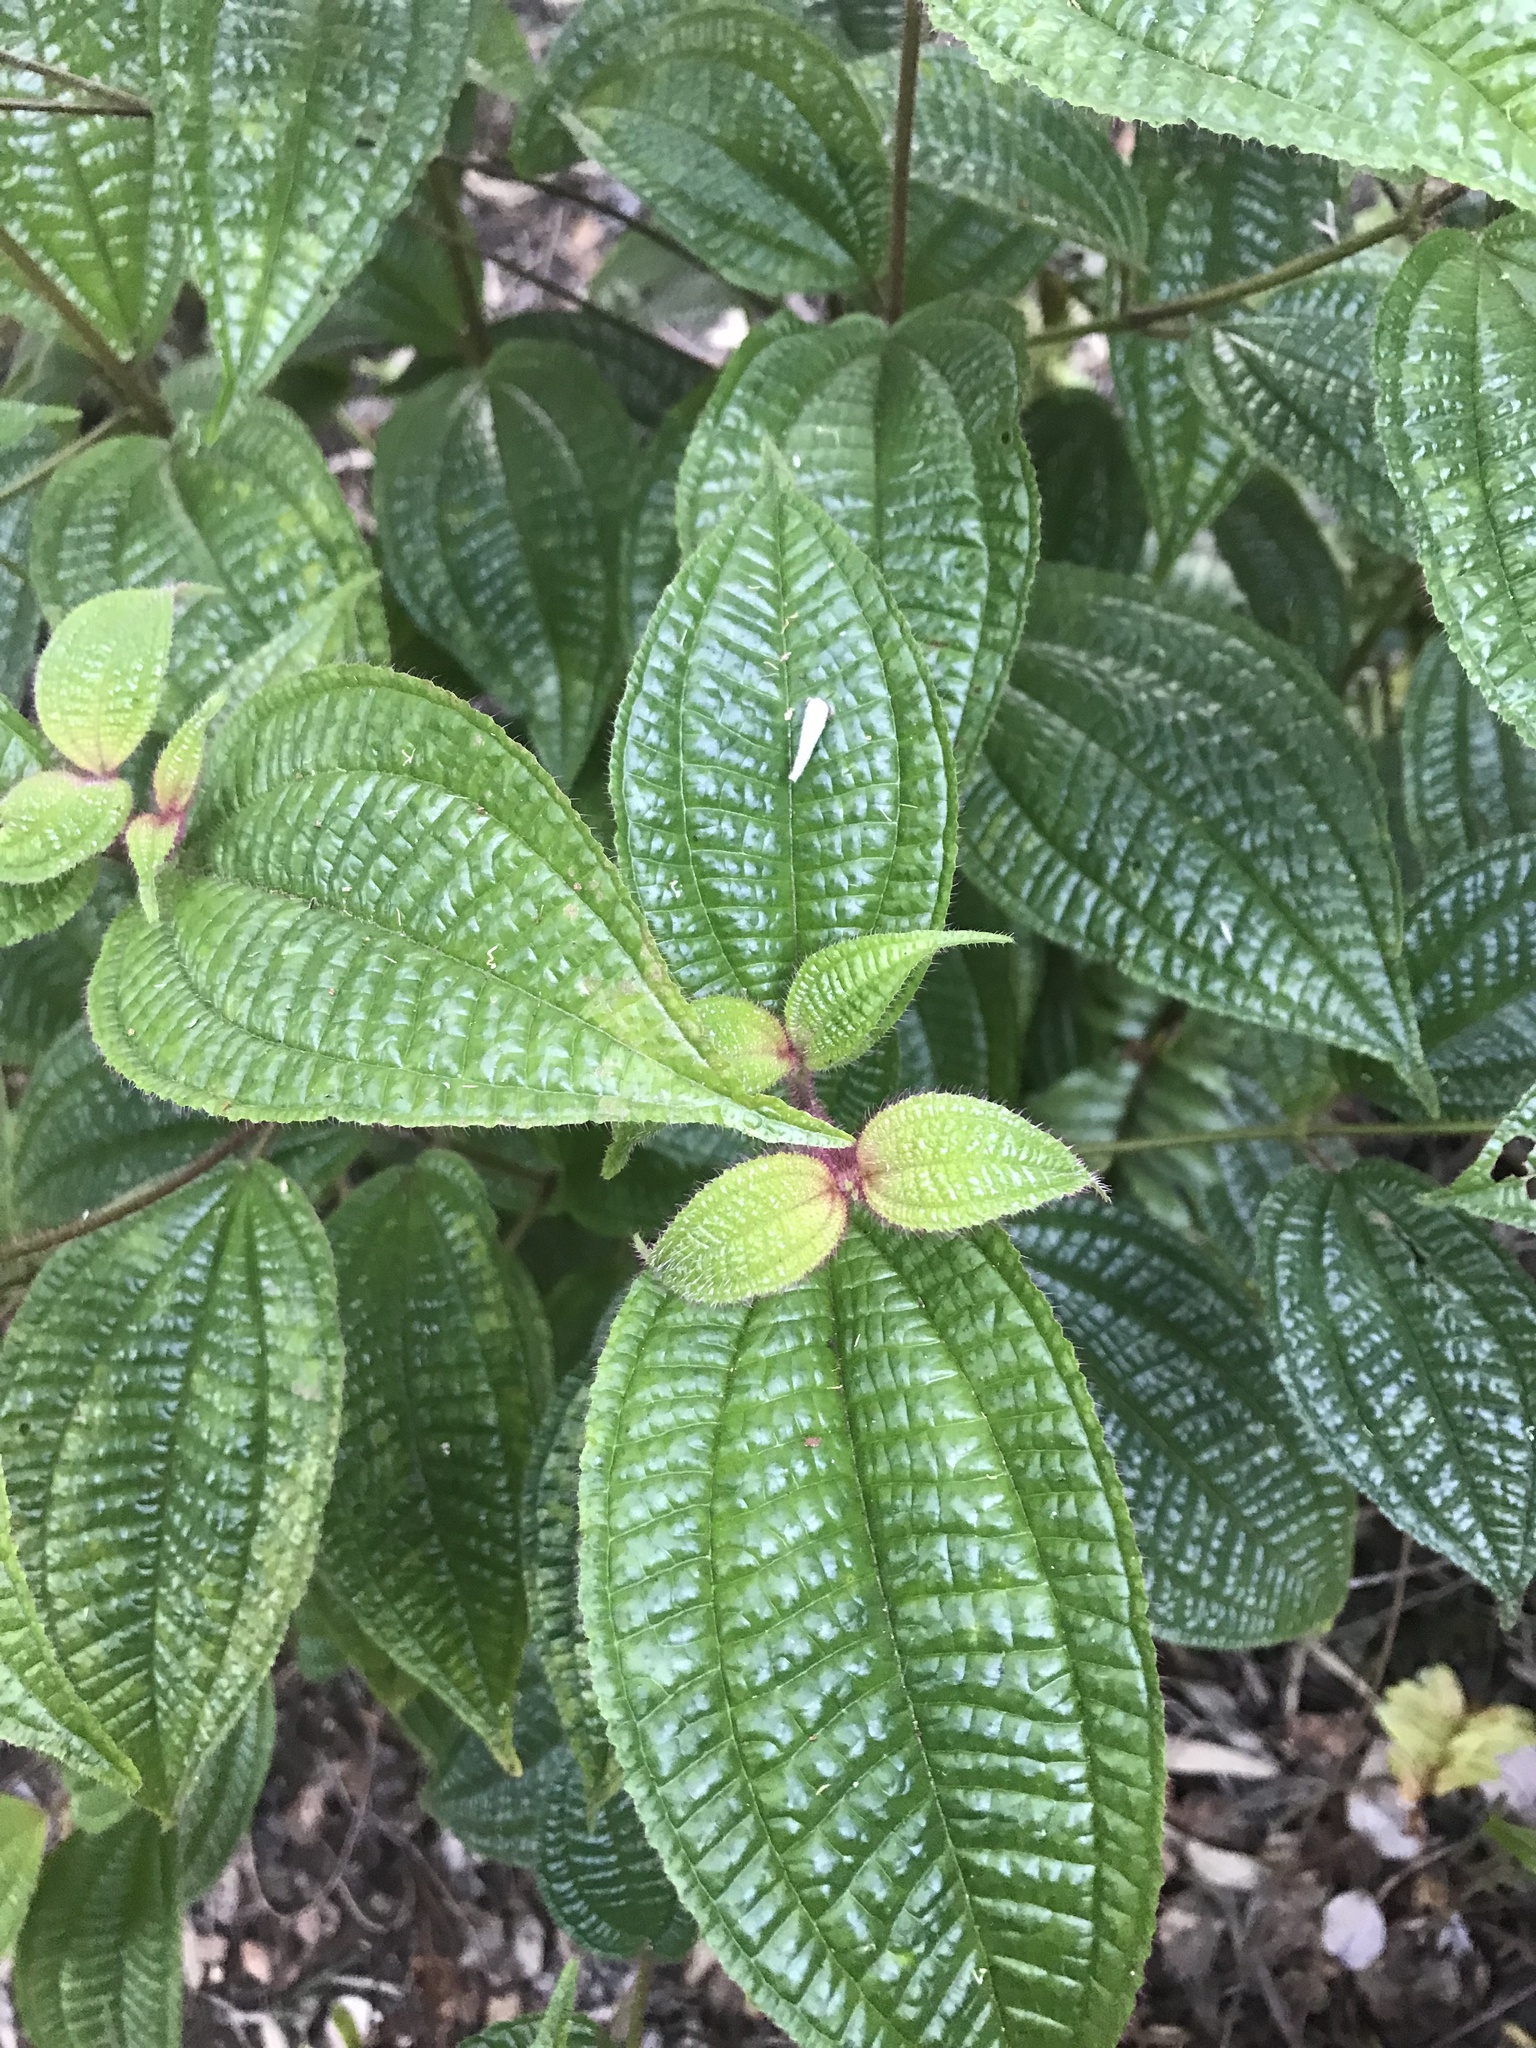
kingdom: Plantae
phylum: Tracheophyta
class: Magnoliopsida
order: Myrtales
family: Melastomataceae
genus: Miconia
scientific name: Miconia crenata
